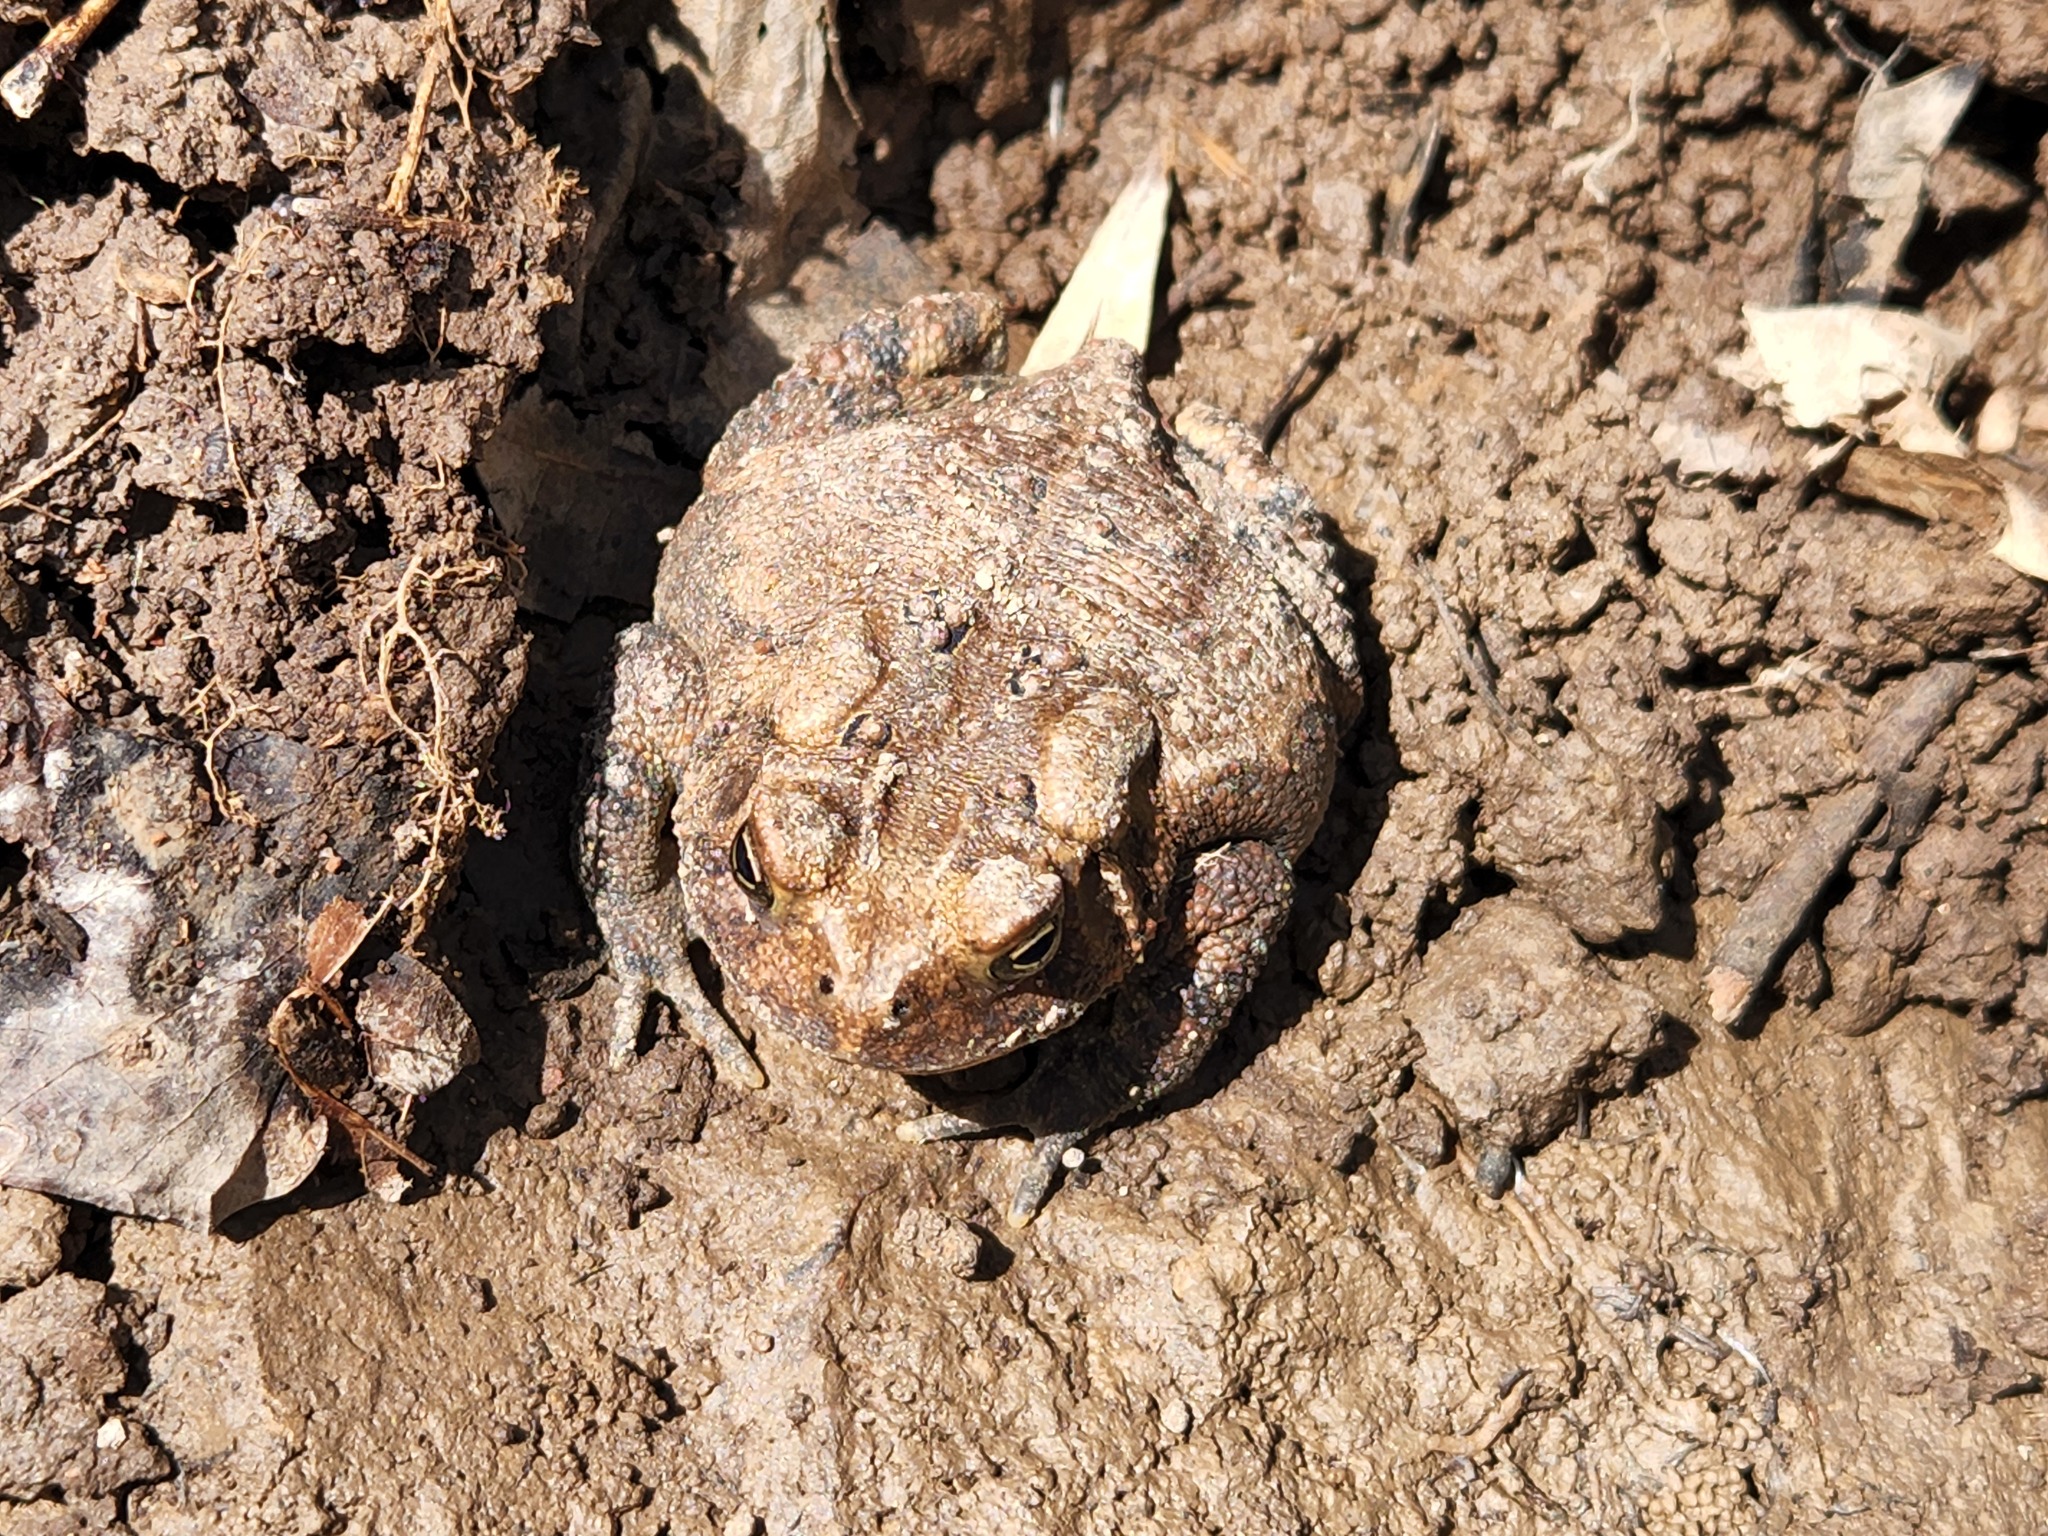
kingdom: Animalia
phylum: Chordata
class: Amphibia
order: Anura
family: Bufonidae
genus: Anaxyrus
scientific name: Anaxyrus americanus
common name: American toad
